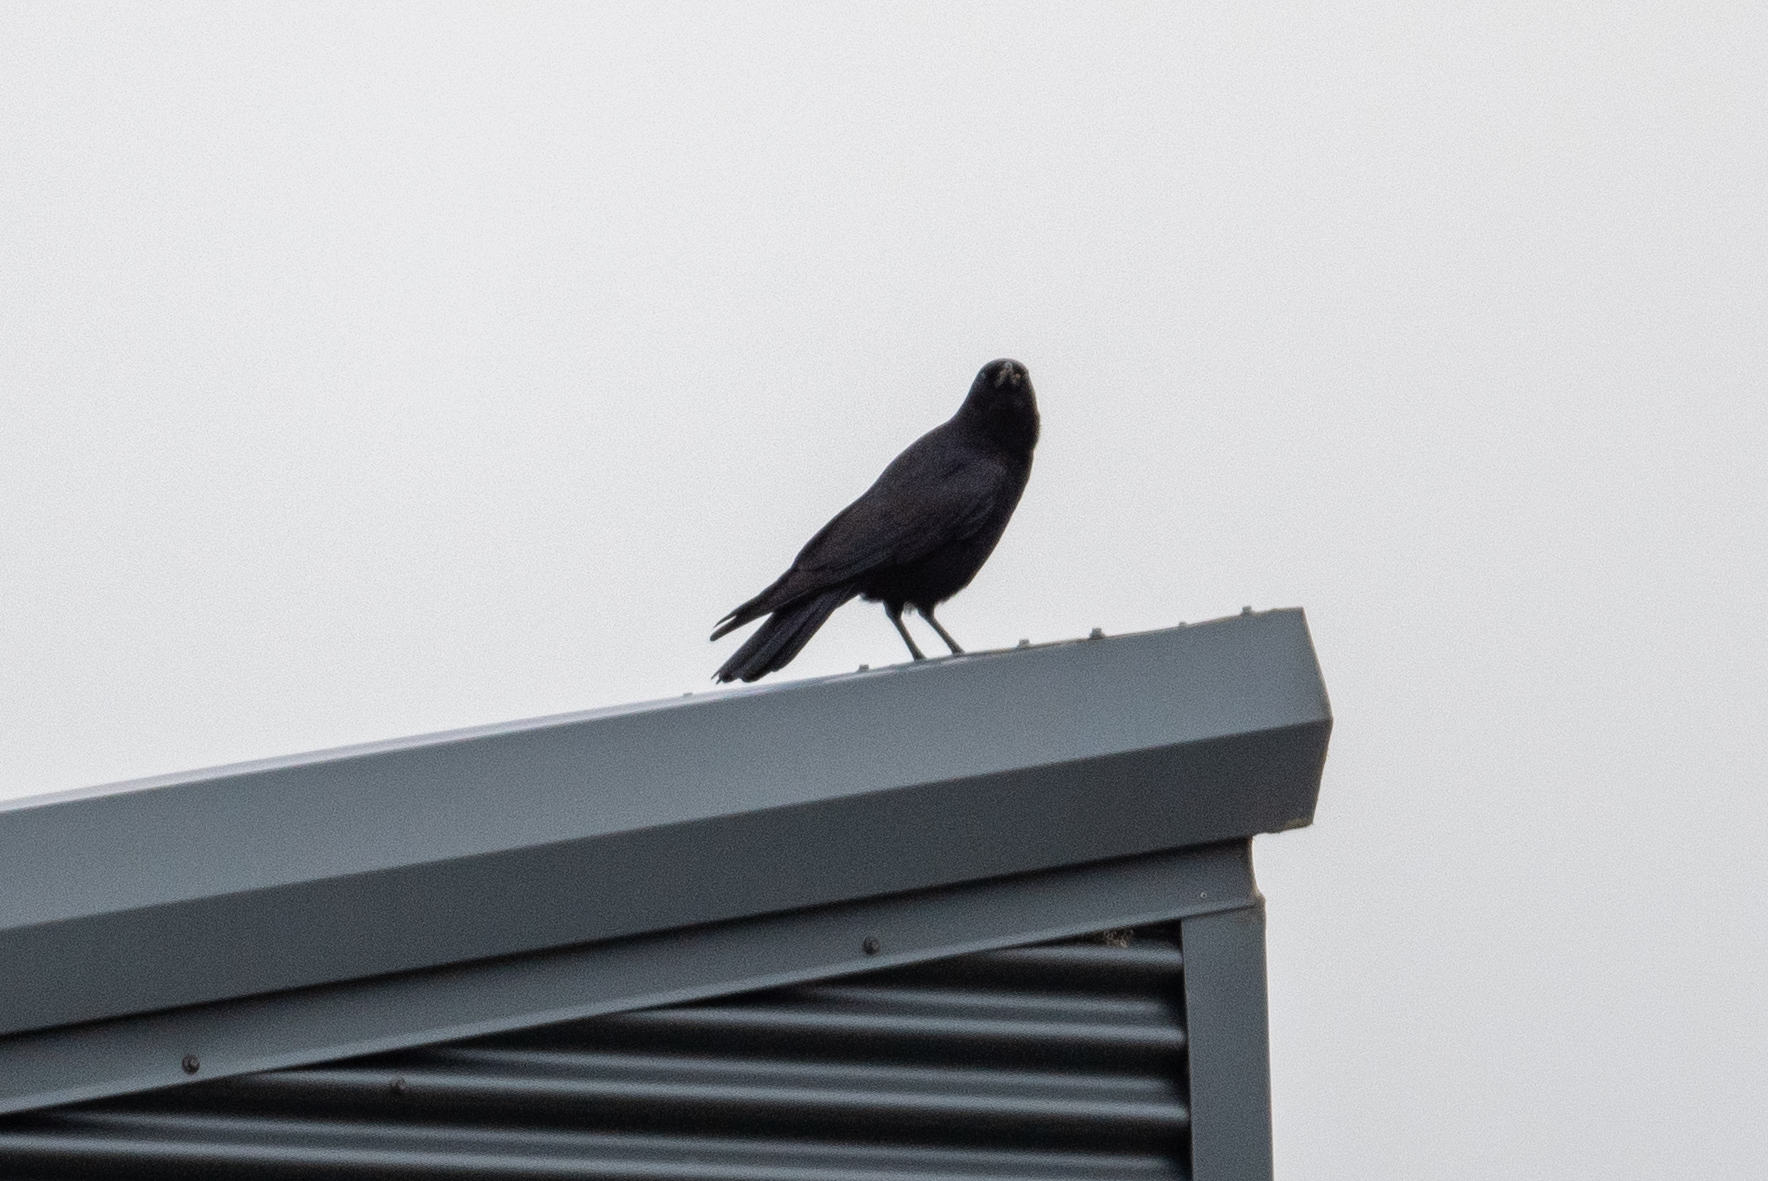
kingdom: Animalia
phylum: Chordata
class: Aves
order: Passeriformes
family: Corvidae
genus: Corvus
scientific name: Corvus brachyrhynchos
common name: American crow
